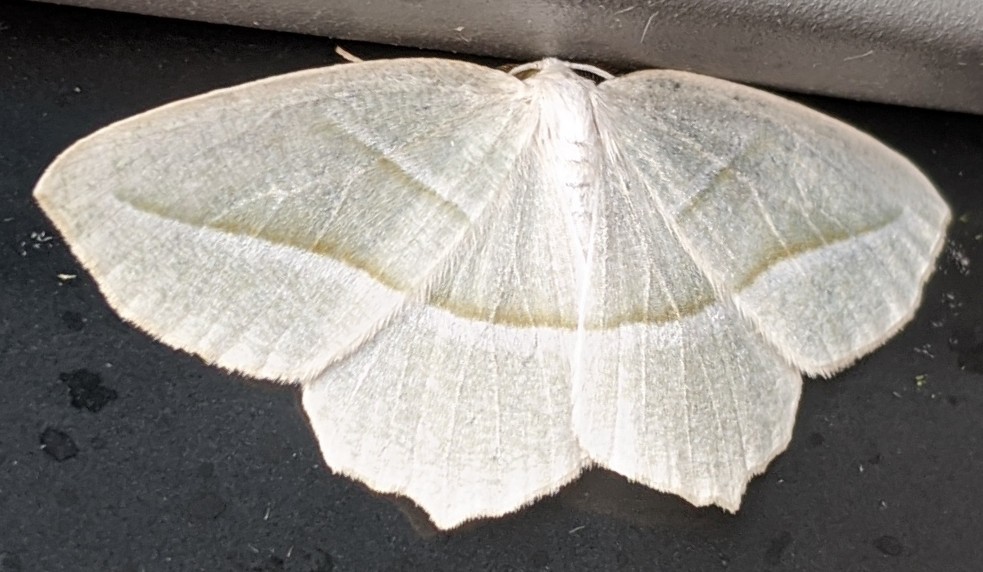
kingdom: Animalia
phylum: Arthropoda
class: Insecta
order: Lepidoptera
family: Geometridae
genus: Campaea
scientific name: Campaea perlata
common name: Fringed looper
